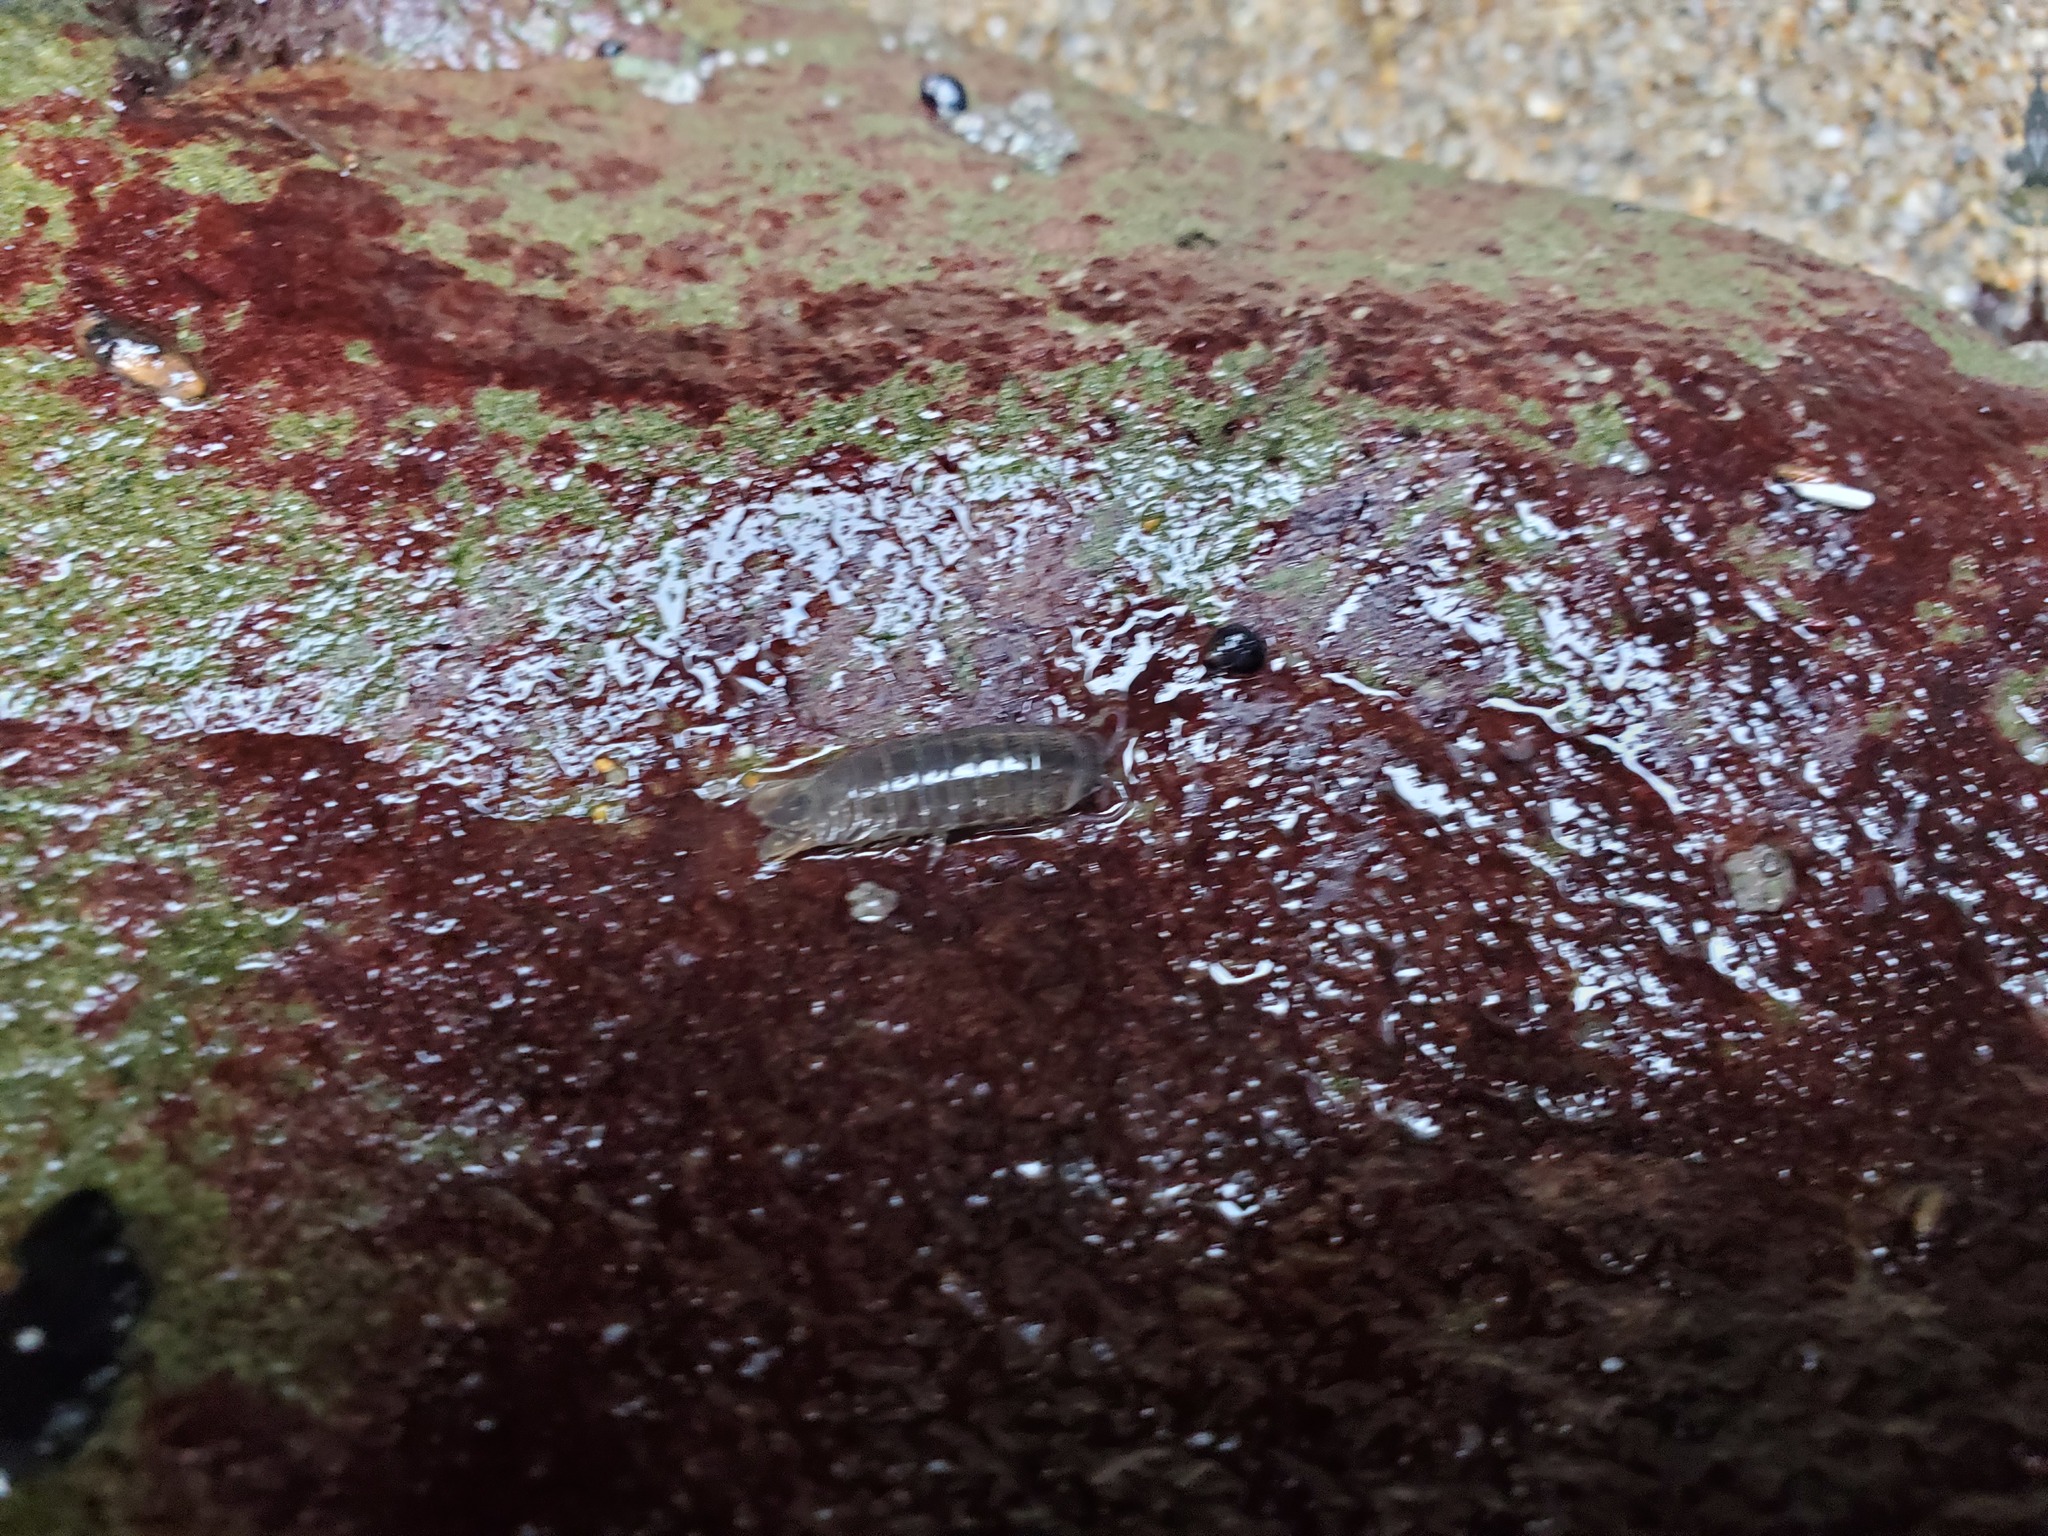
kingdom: Animalia
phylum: Arthropoda
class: Malacostraca
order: Isopoda
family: Cirolanidae
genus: Cirolana
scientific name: Cirolana harfordi
